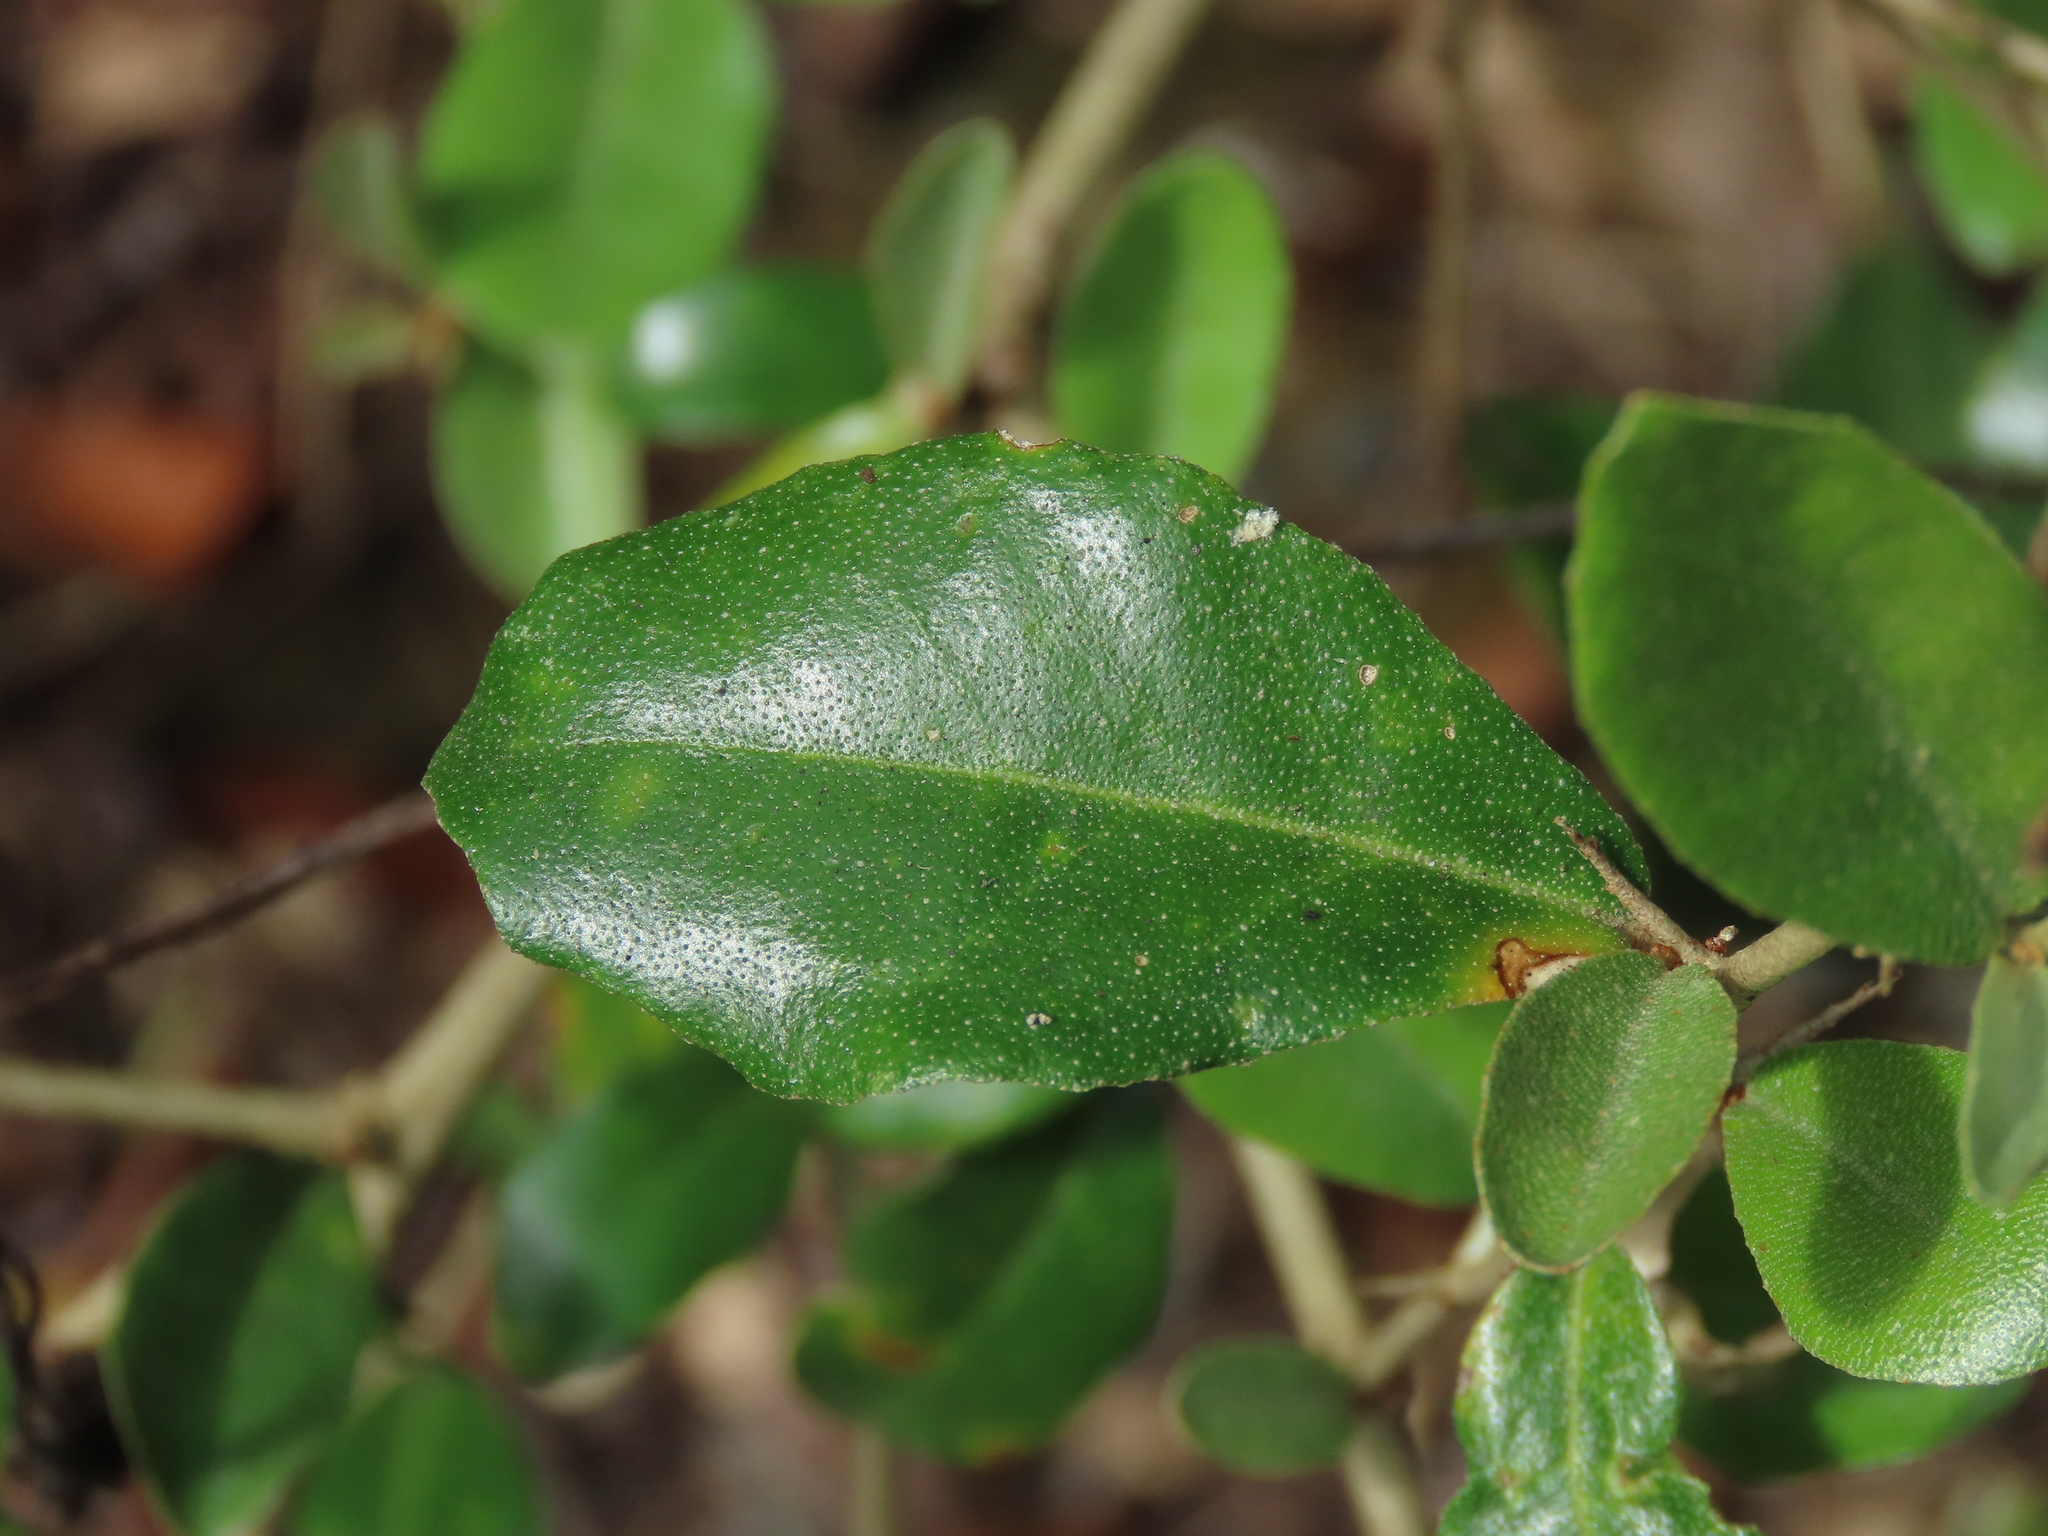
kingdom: Plantae
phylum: Tracheophyta
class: Magnoliopsida
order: Rosales
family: Elaeagnaceae
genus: Elaeagnus
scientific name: Elaeagnus oldhamii
